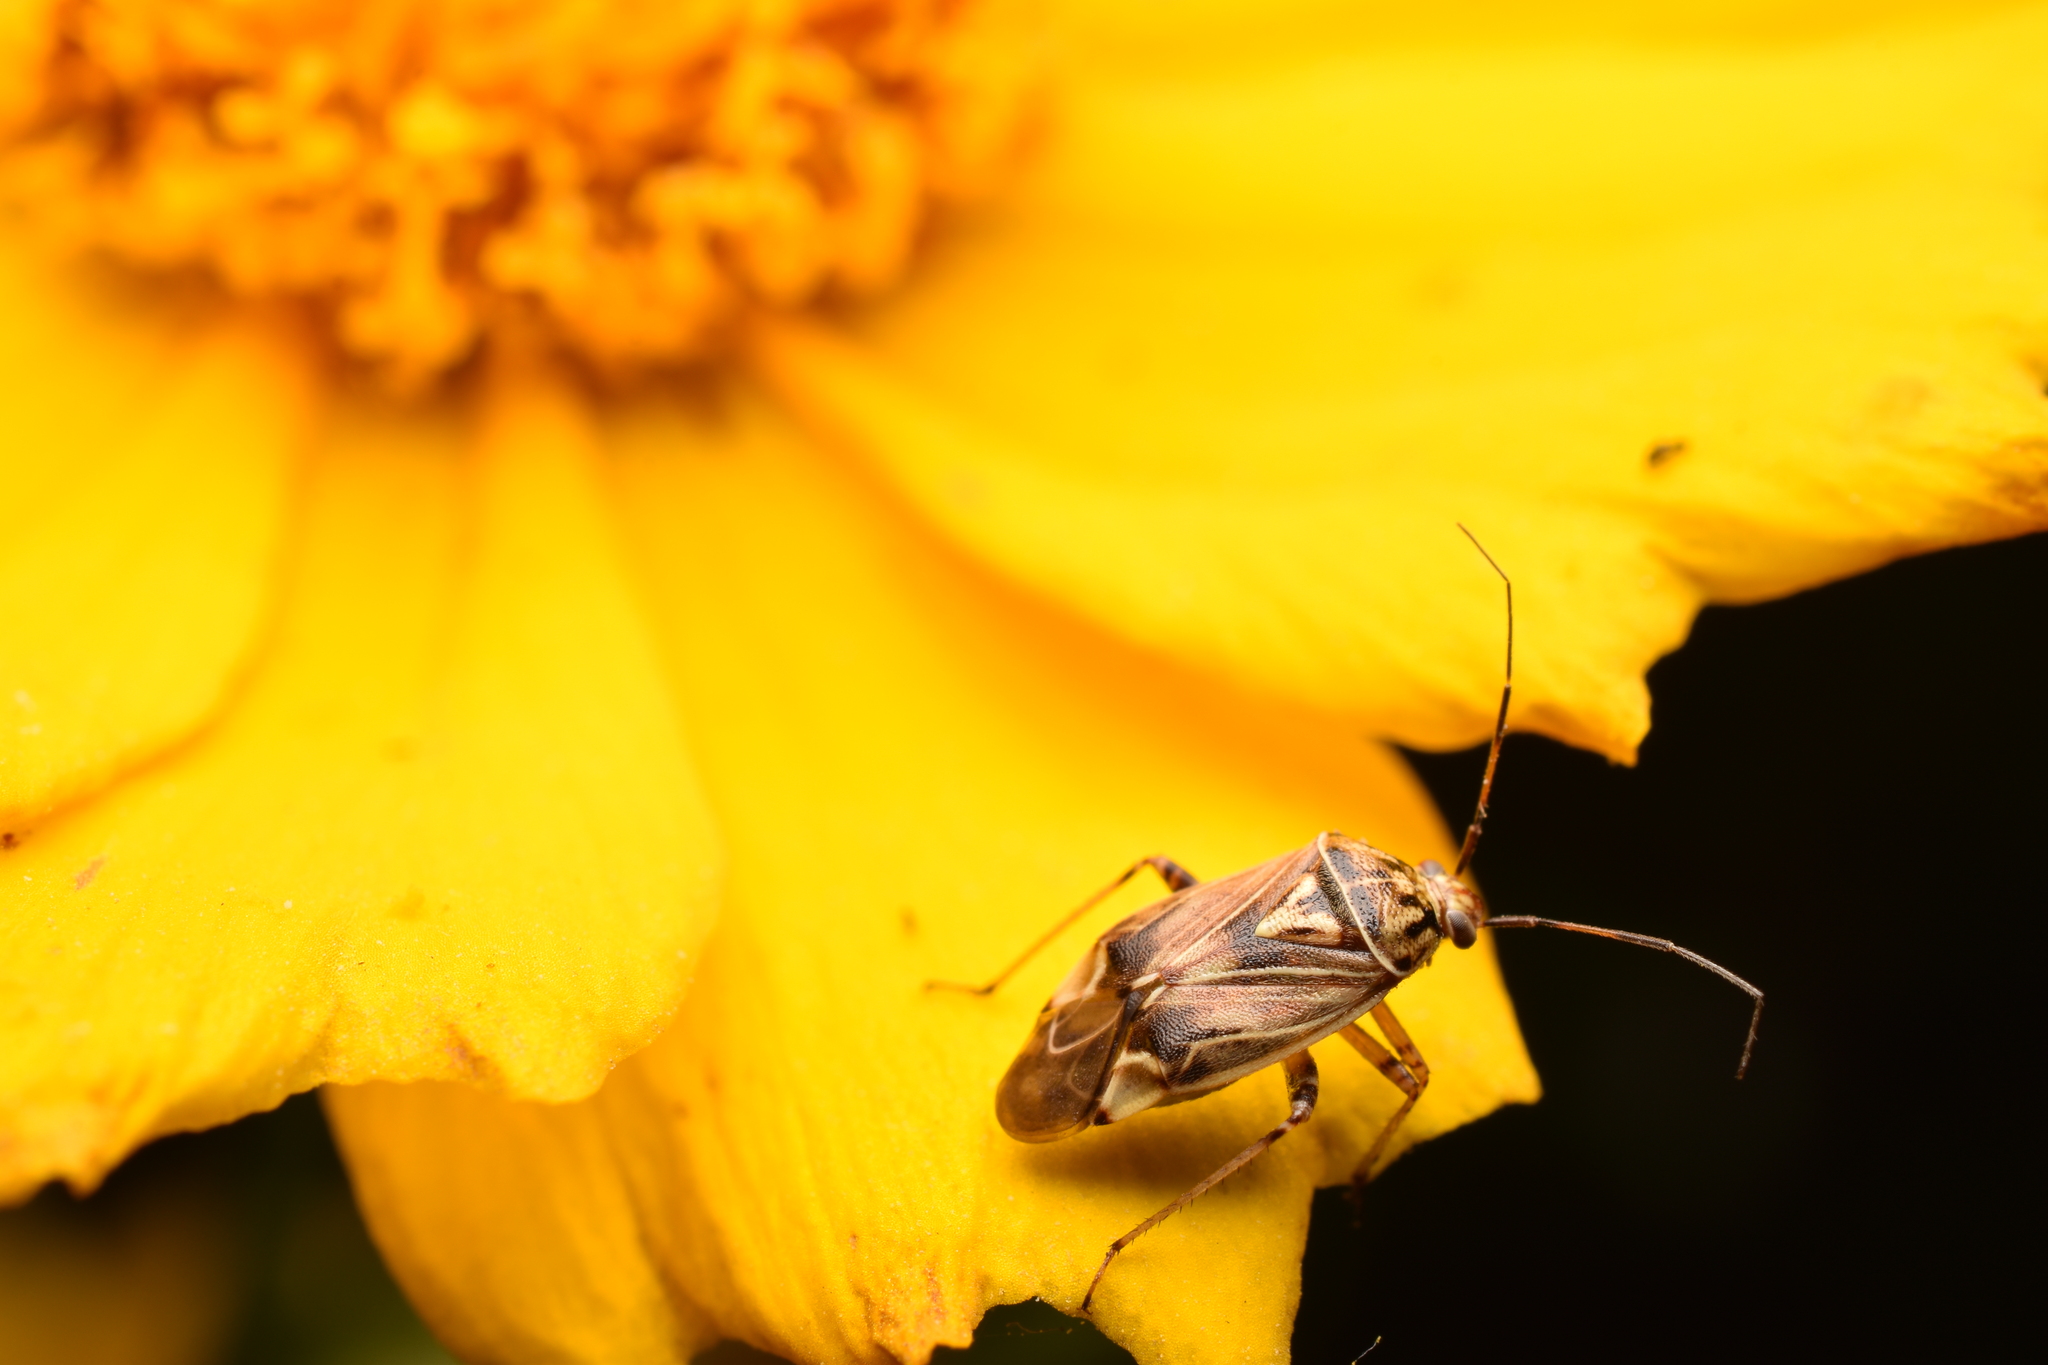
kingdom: Animalia
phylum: Arthropoda
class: Insecta
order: Hemiptera
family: Miridae
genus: Lygus
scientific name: Lygus lineolaris
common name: North american tarnished plant bug
